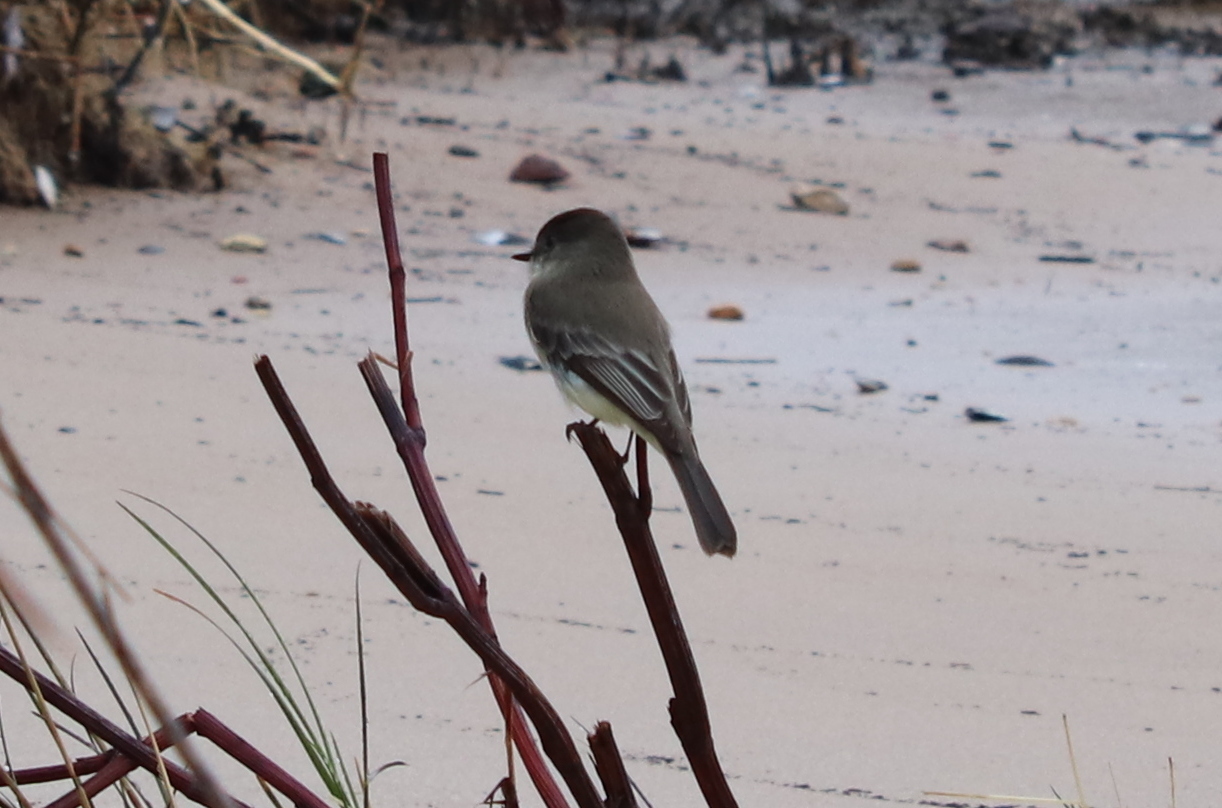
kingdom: Animalia
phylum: Chordata
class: Aves
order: Passeriformes
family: Tyrannidae
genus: Sayornis
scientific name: Sayornis phoebe
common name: Eastern phoebe
